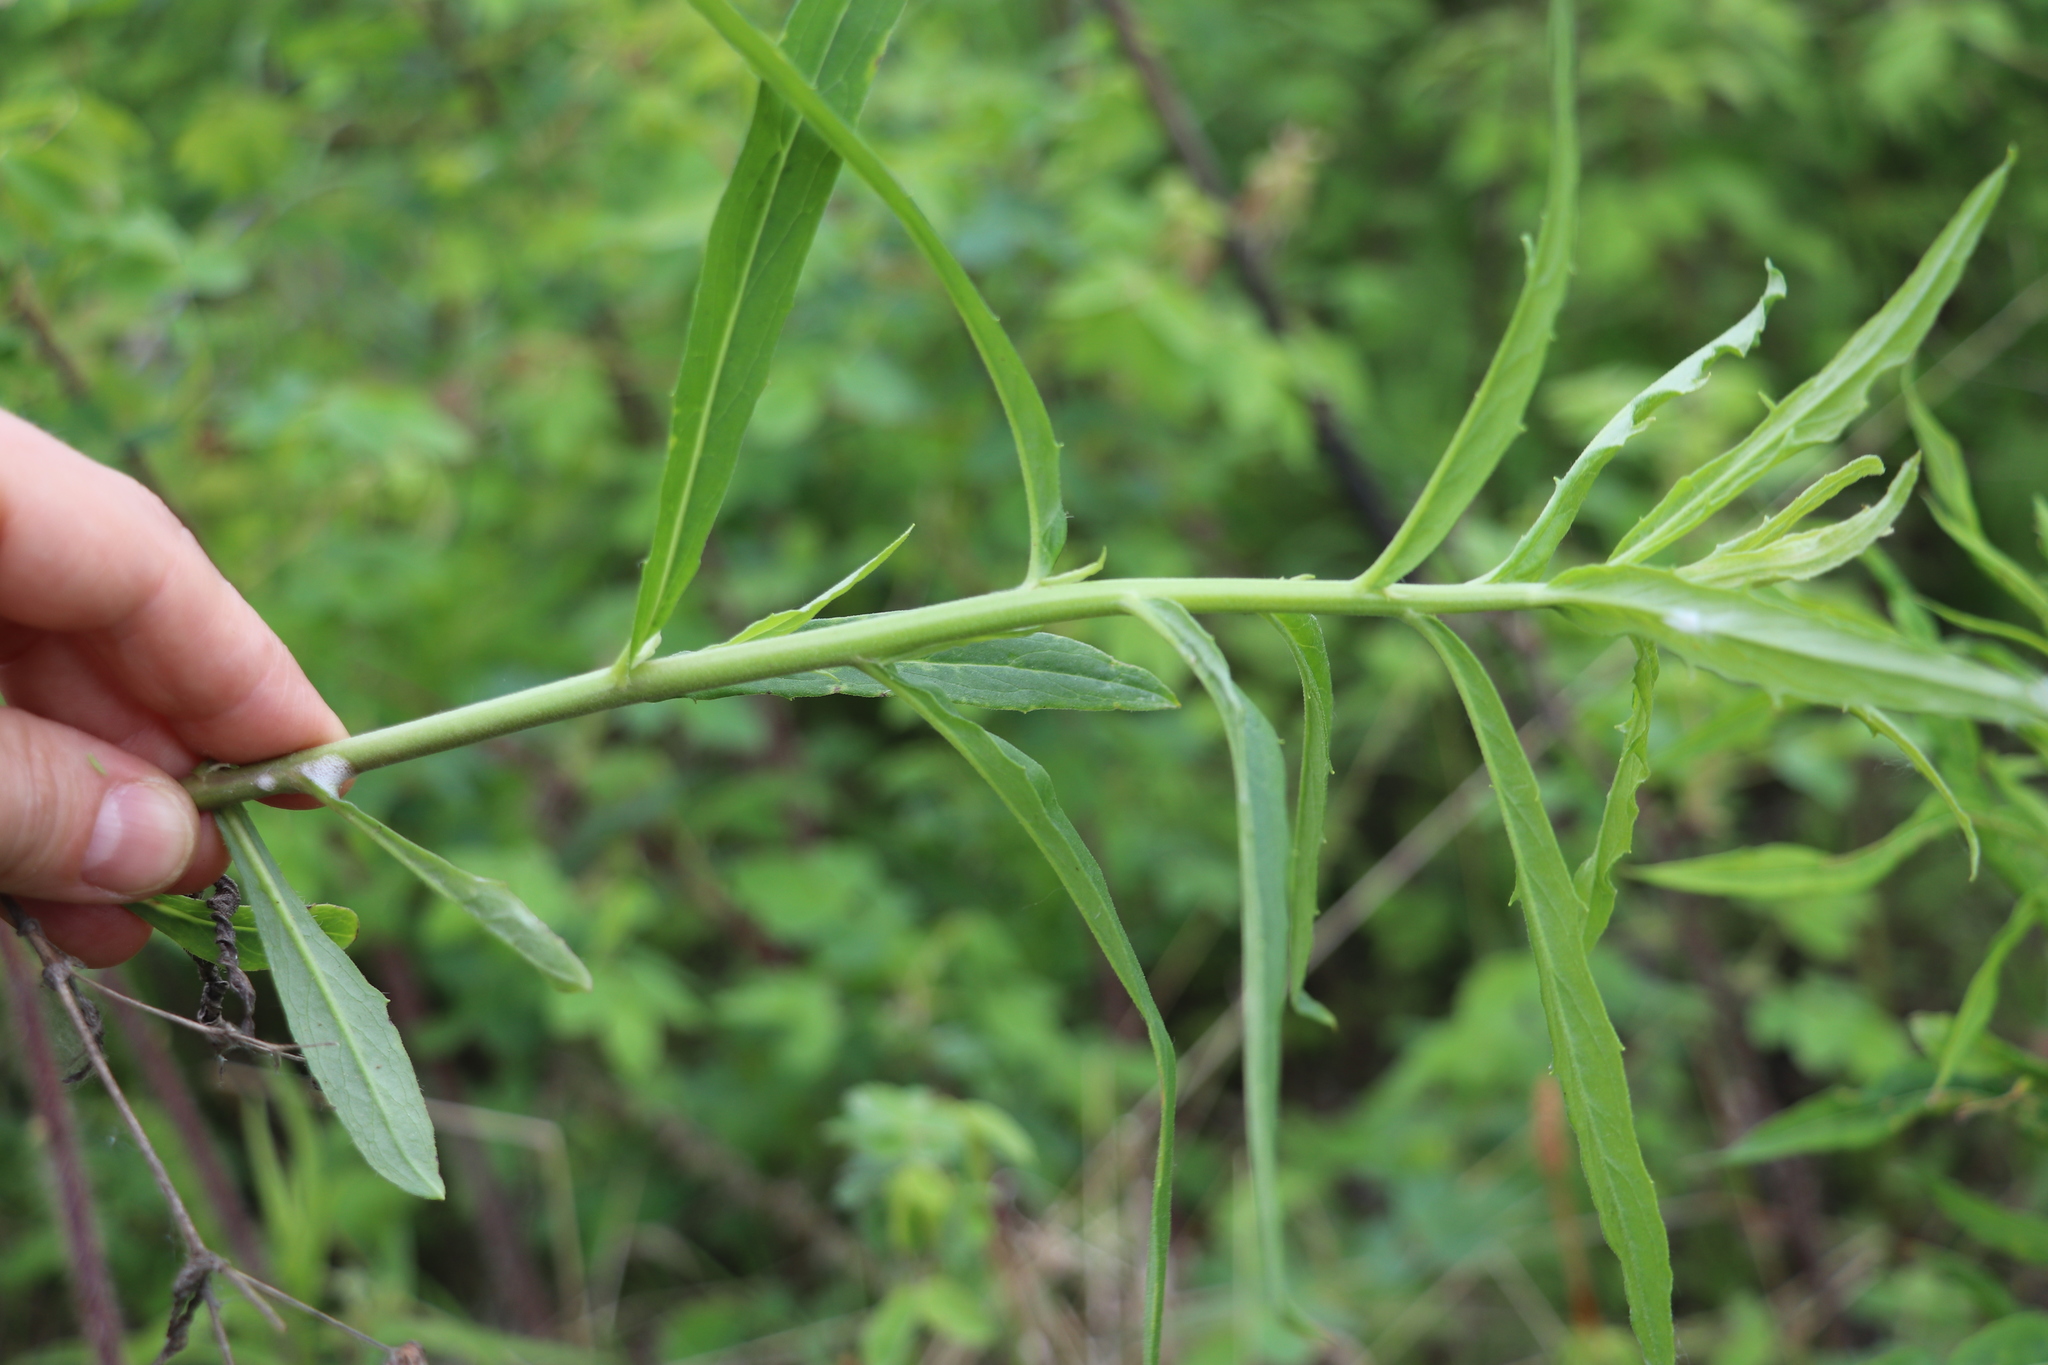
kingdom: Plantae
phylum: Tracheophyta
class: Magnoliopsida
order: Asterales
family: Asteraceae
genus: Hieracium
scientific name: Hieracium umbellatum
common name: Northern hawkweed
